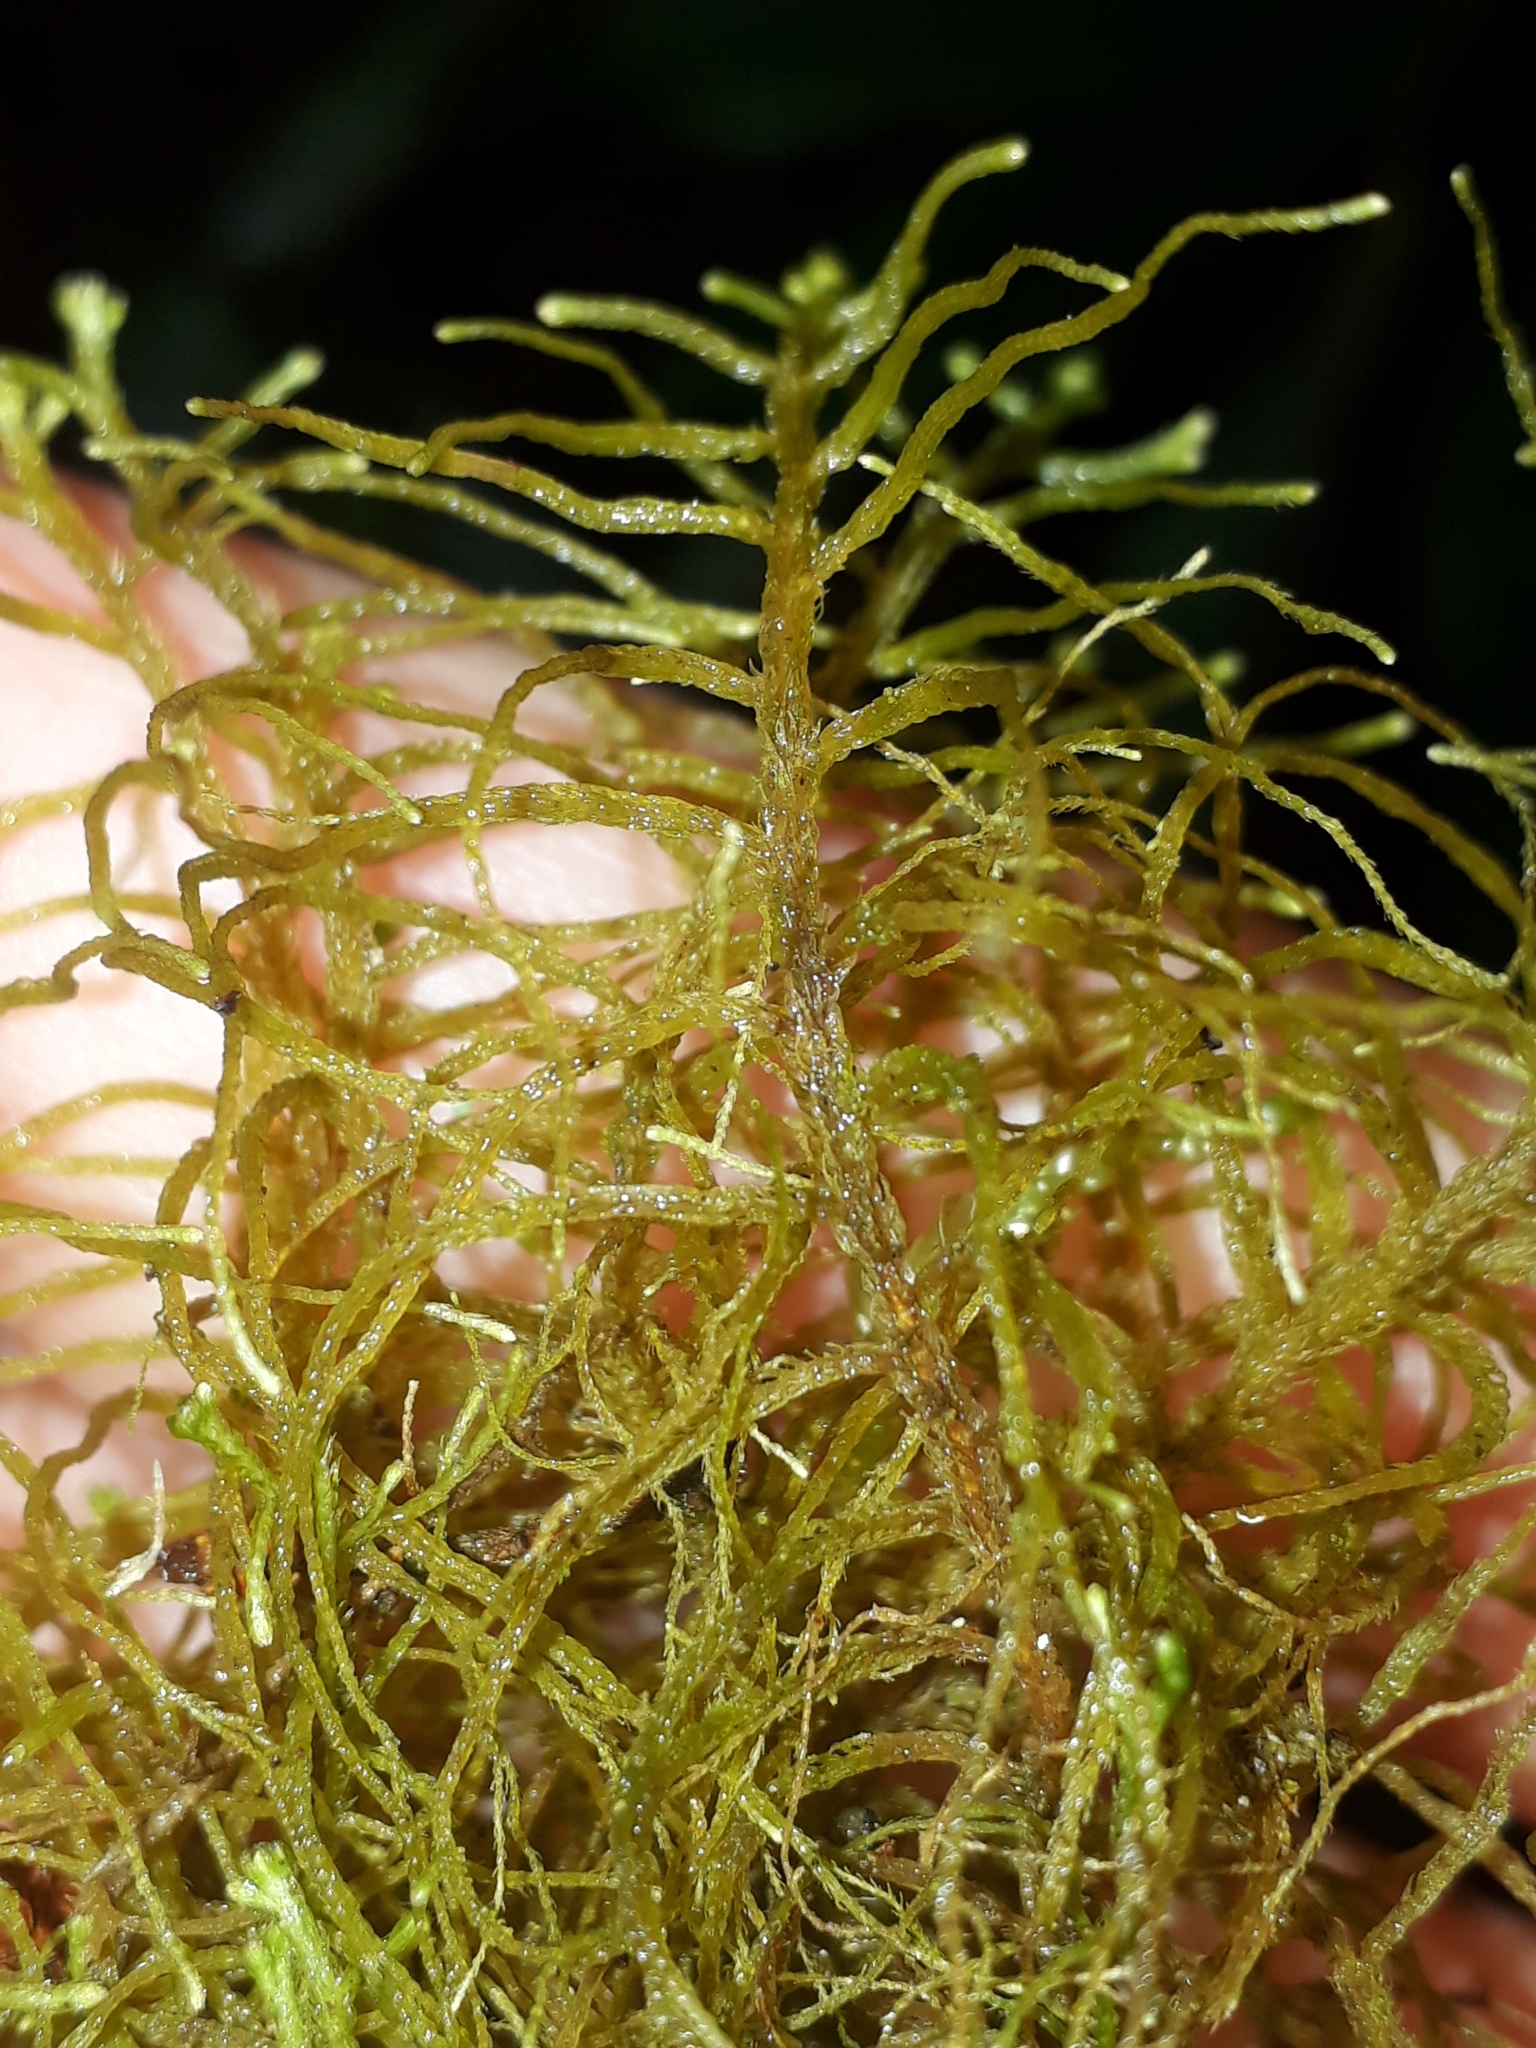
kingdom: Plantae
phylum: Marchantiophyta
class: Jungermanniopsida
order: Jungermanniales
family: Mastigophoraceae
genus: Dendromastigophora
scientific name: Dendromastigophora flagellifera
